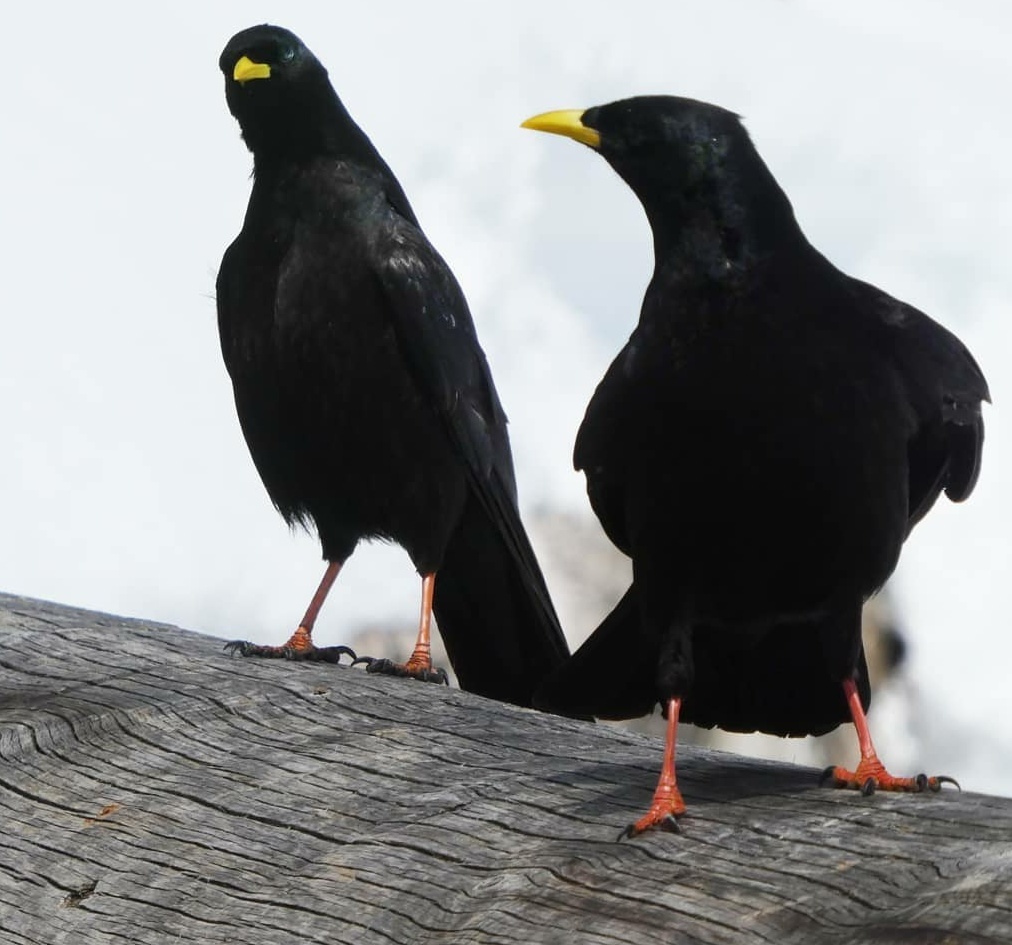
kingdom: Animalia
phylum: Chordata
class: Aves
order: Passeriformes
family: Corvidae
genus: Pyrrhocorax
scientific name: Pyrrhocorax graculus
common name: Alpine chough
